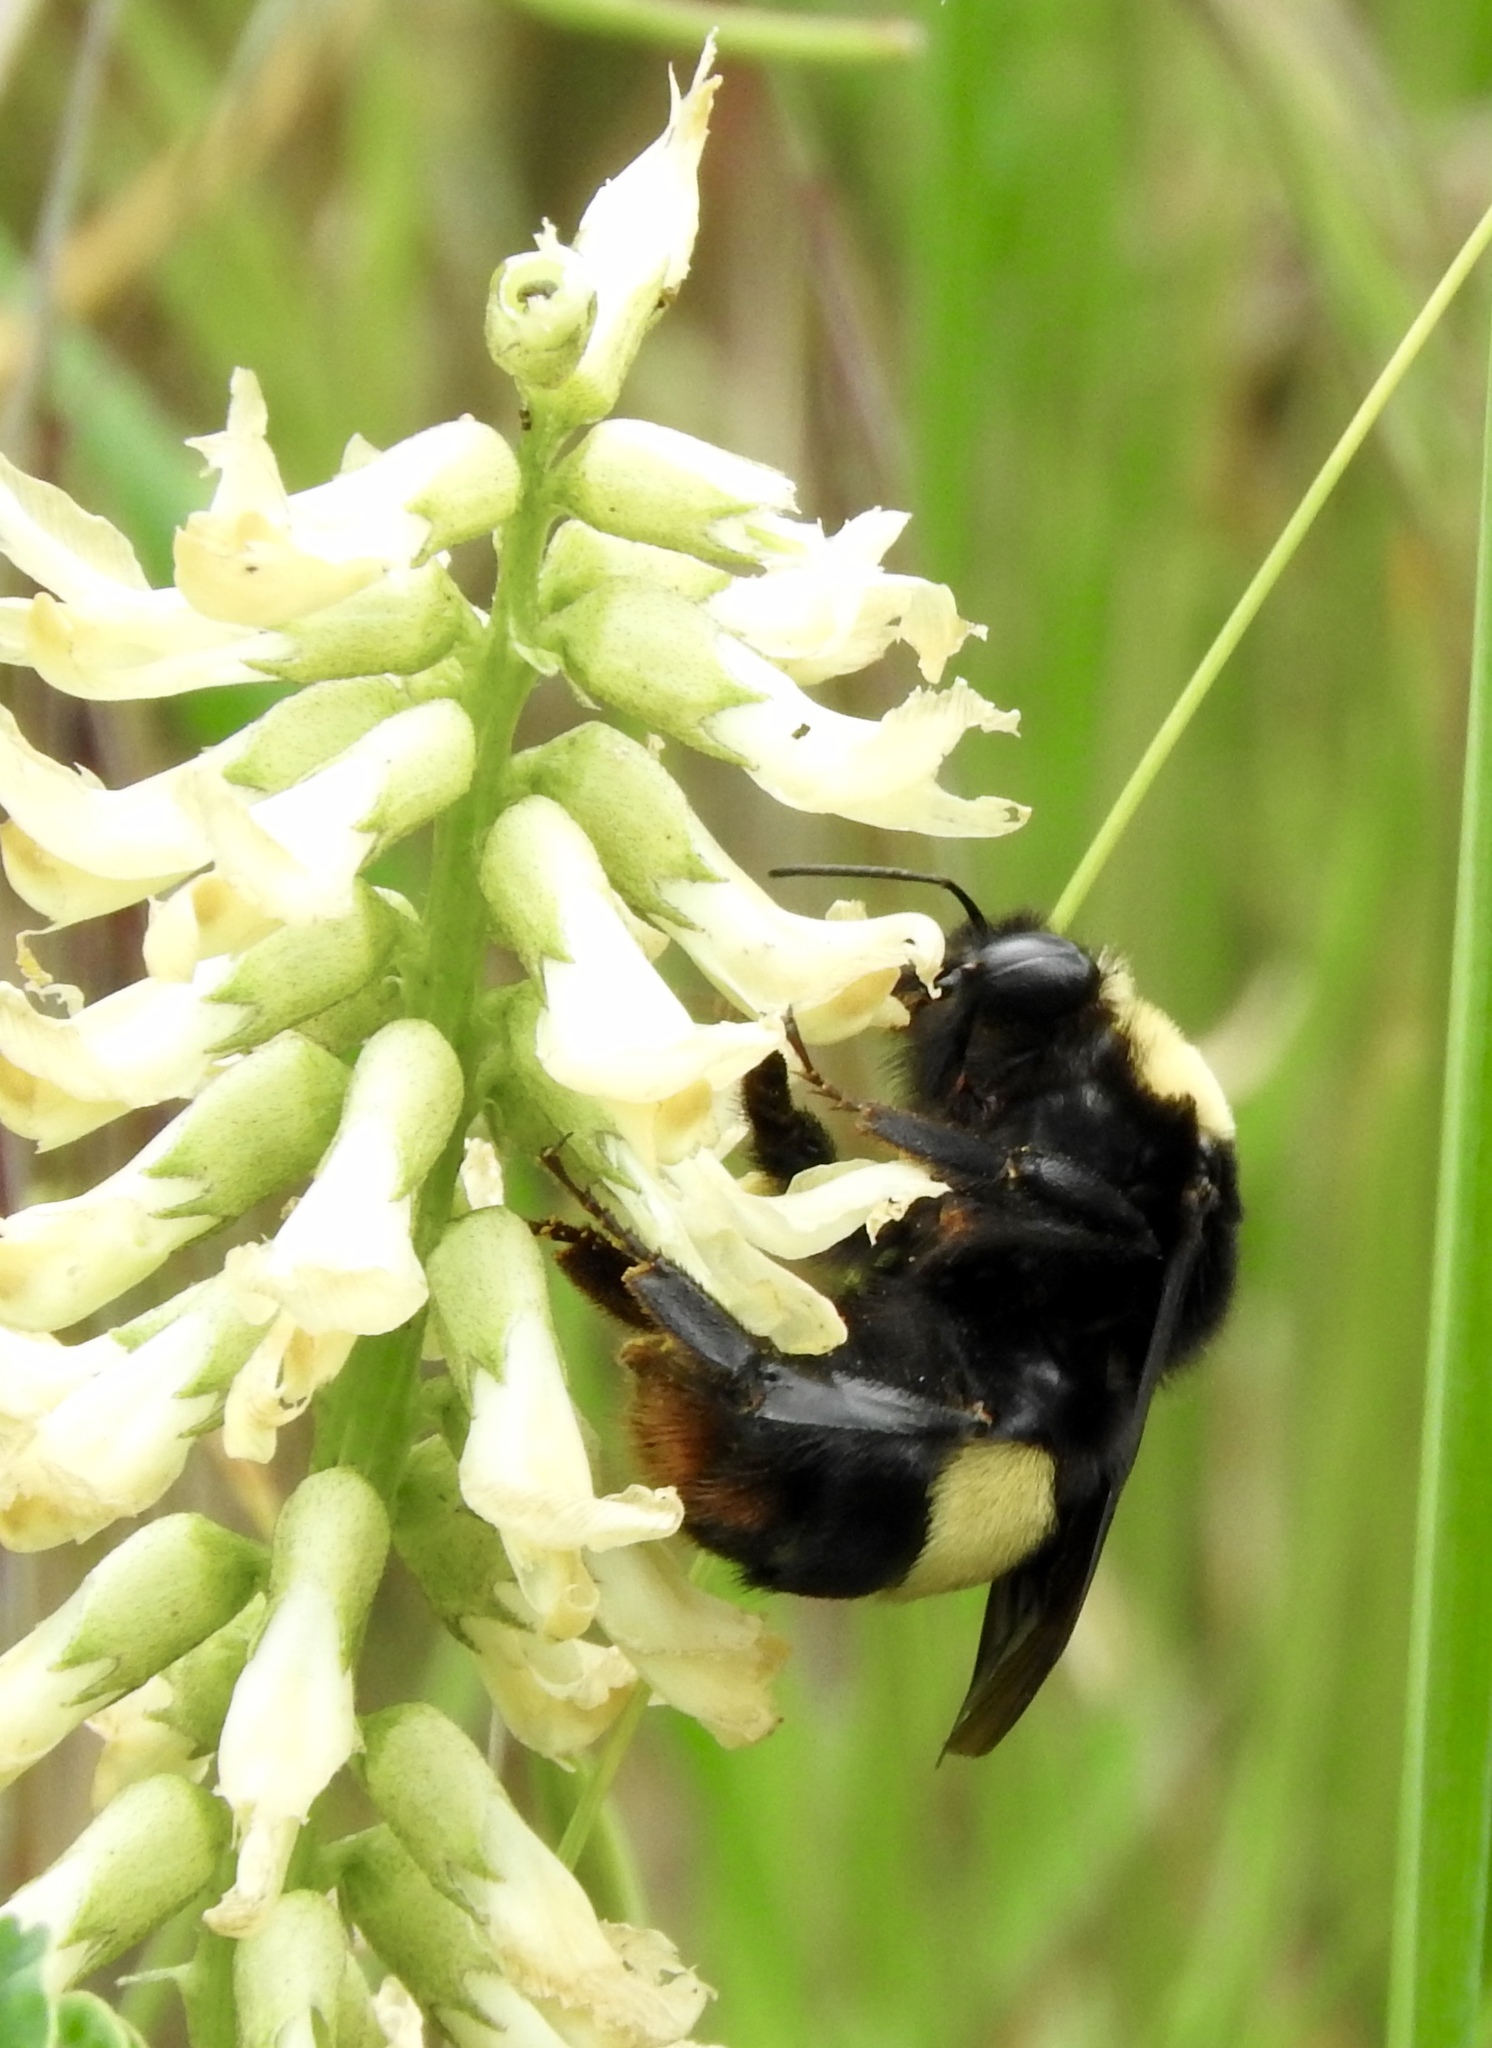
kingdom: Animalia
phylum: Arthropoda
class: Insecta
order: Hymenoptera
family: Apidae
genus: Bombus
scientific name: Bombus crotchii
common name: Crotch bumble bee
